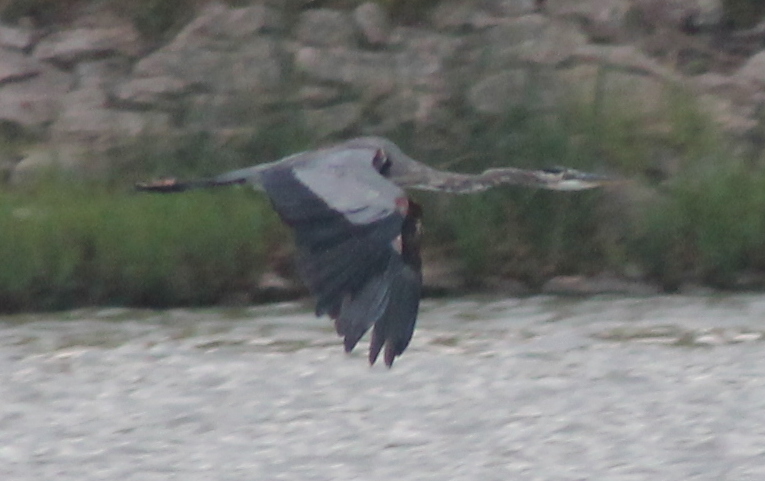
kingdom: Animalia
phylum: Chordata
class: Aves
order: Pelecaniformes
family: Ardeidae
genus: Ardea
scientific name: Ardea herodias
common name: Great blue heron
